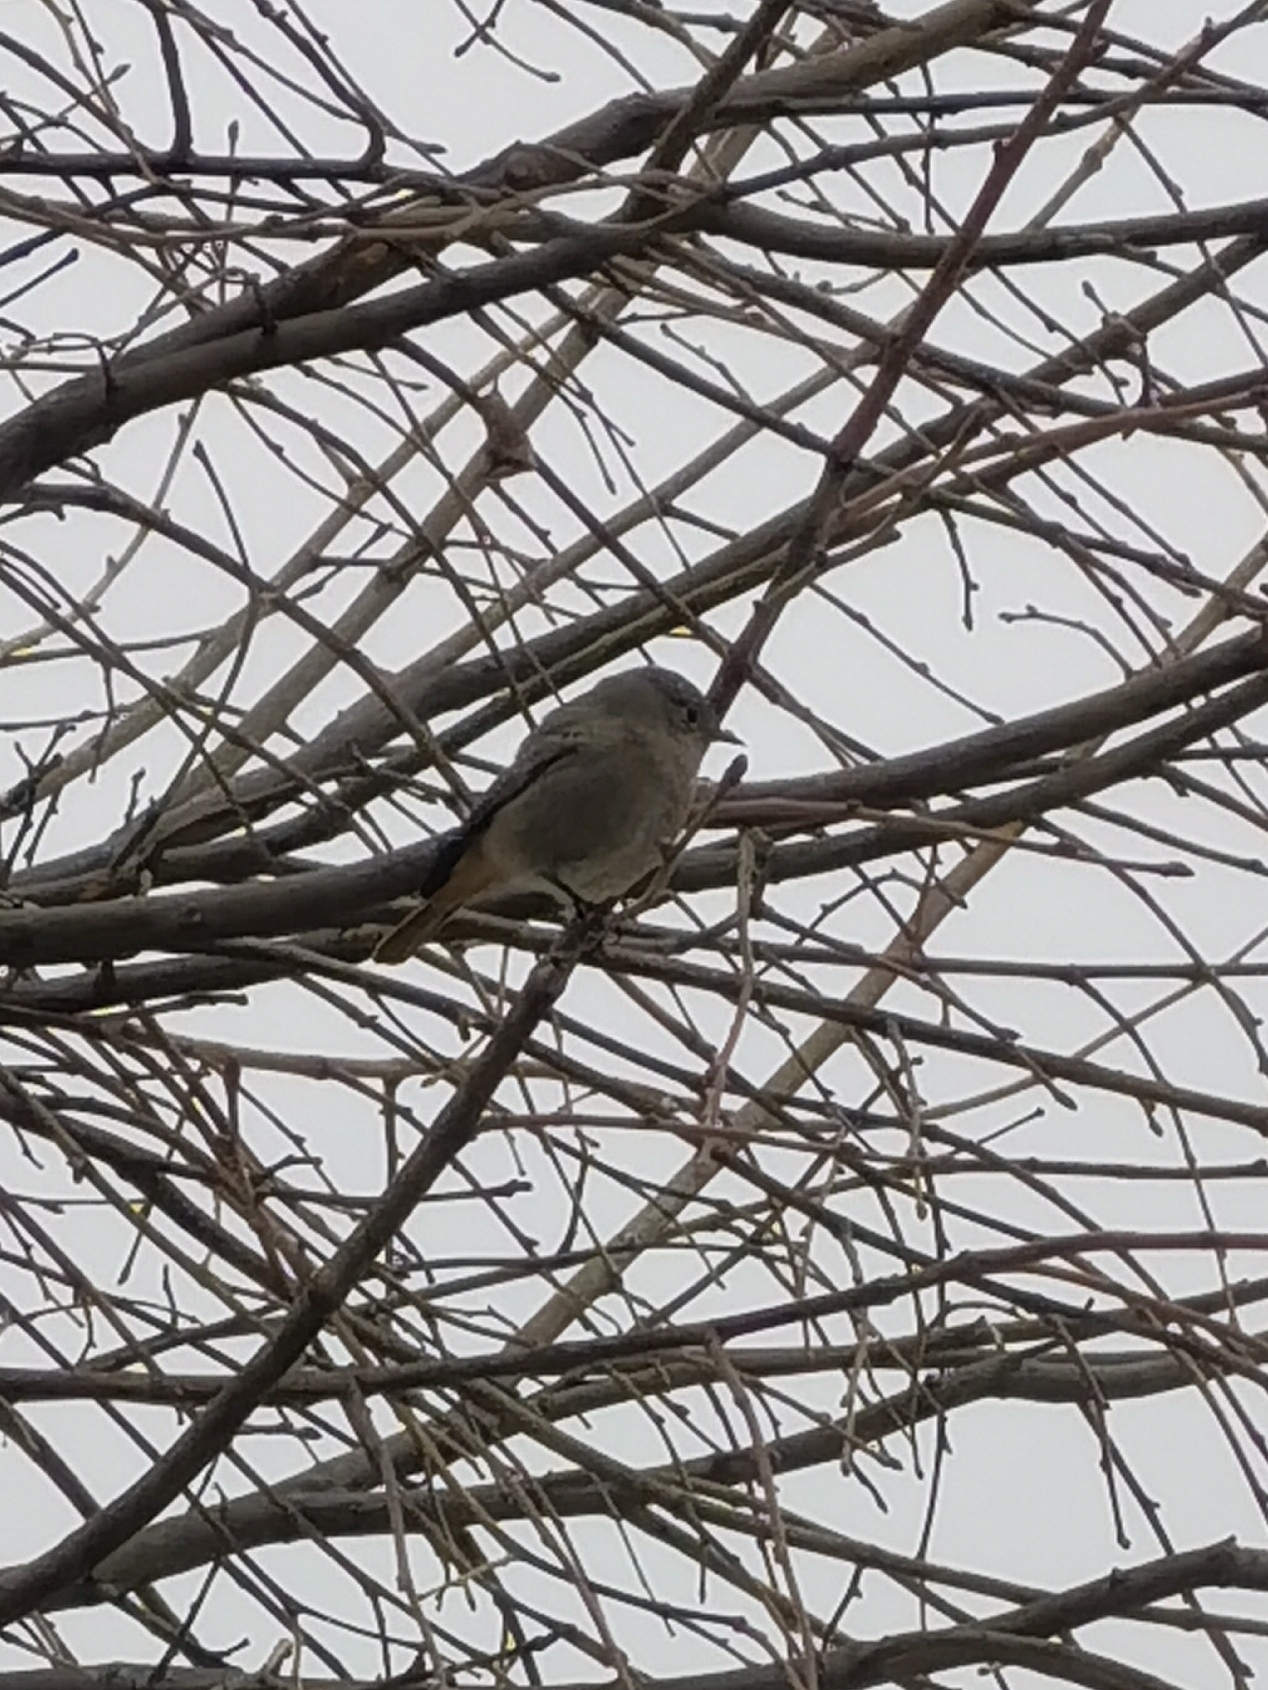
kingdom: Animalia
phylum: Chordata
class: Aves
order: Passeriformes
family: Muscicapidae
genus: Phoenicurus
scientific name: Phoenicurus ochruros
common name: Black redstart
